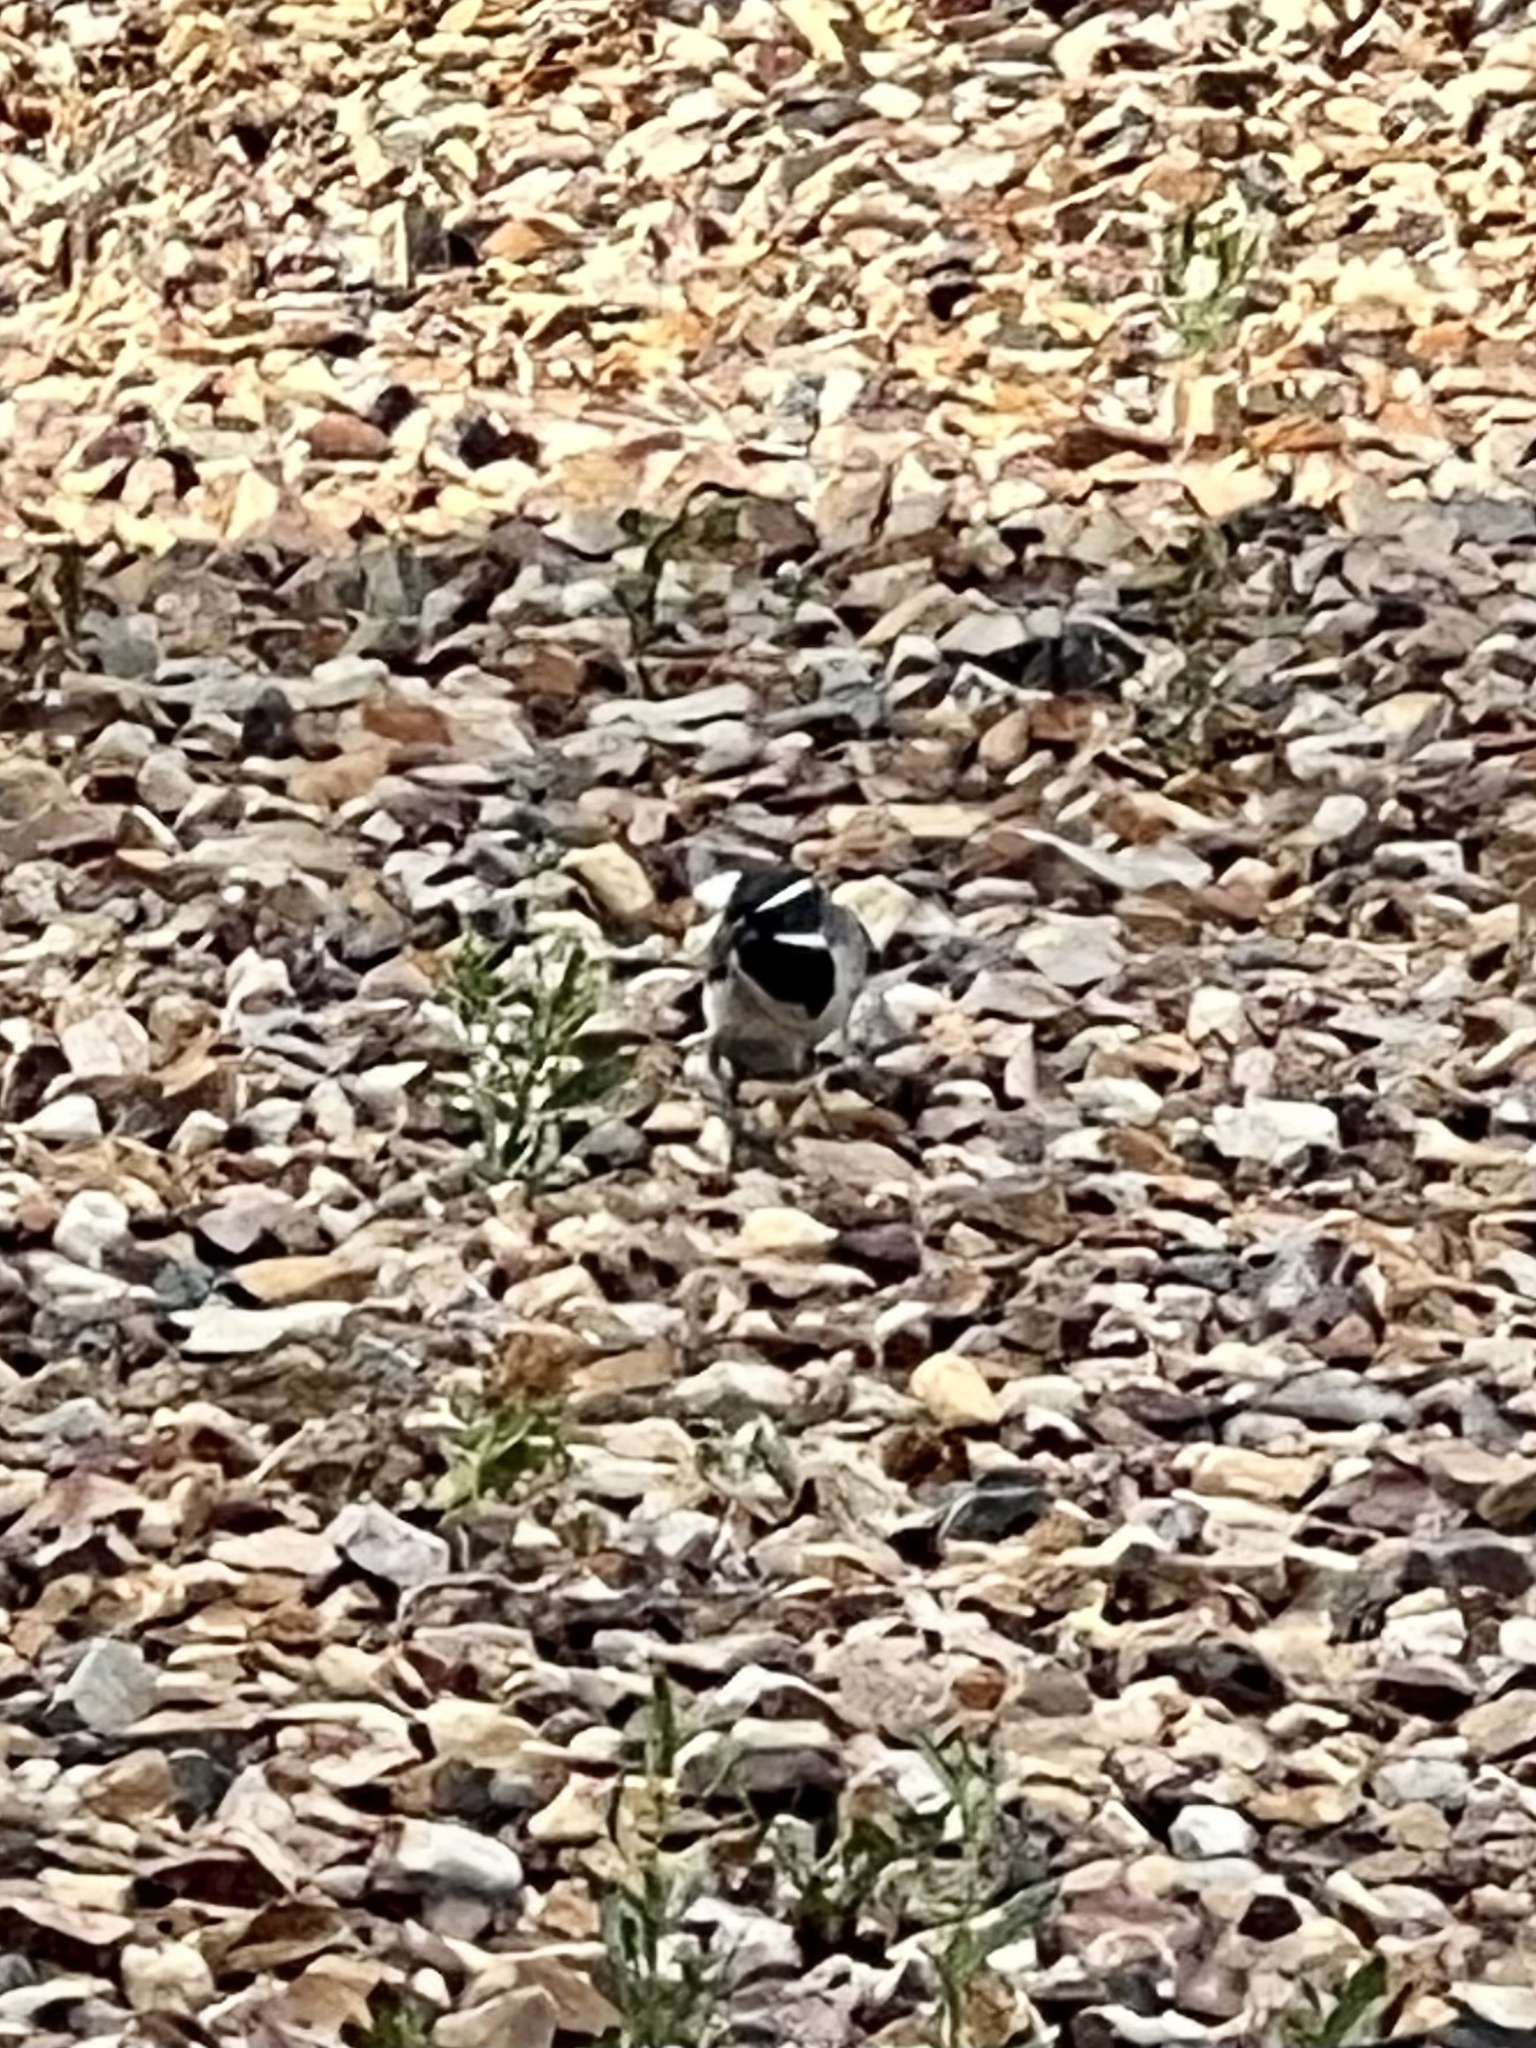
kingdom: Animalia
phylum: Chordata
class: Aves
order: Passeriformes
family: Passerellidae
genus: Amphispiza
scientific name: Amphispiza bilineata
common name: Black-throated sparrow
